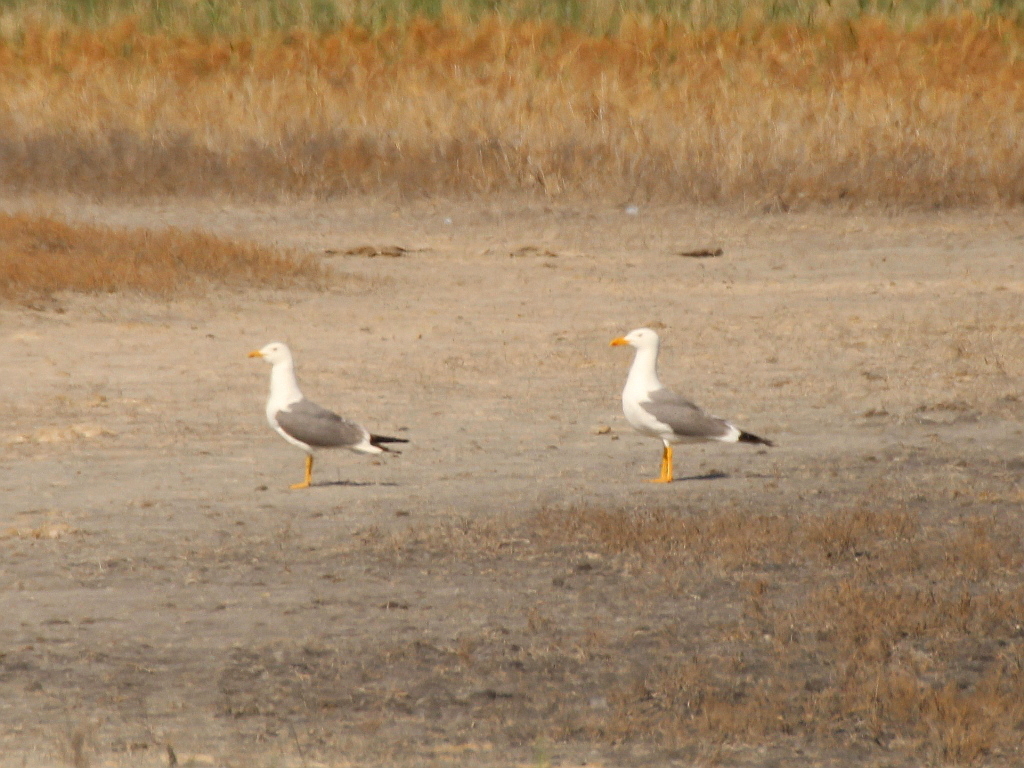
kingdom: Animalia
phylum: Chordata
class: Aves
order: Charadriiformes
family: Laridae
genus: Larus
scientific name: Larus fuscus
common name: Lesser black-backed gull
